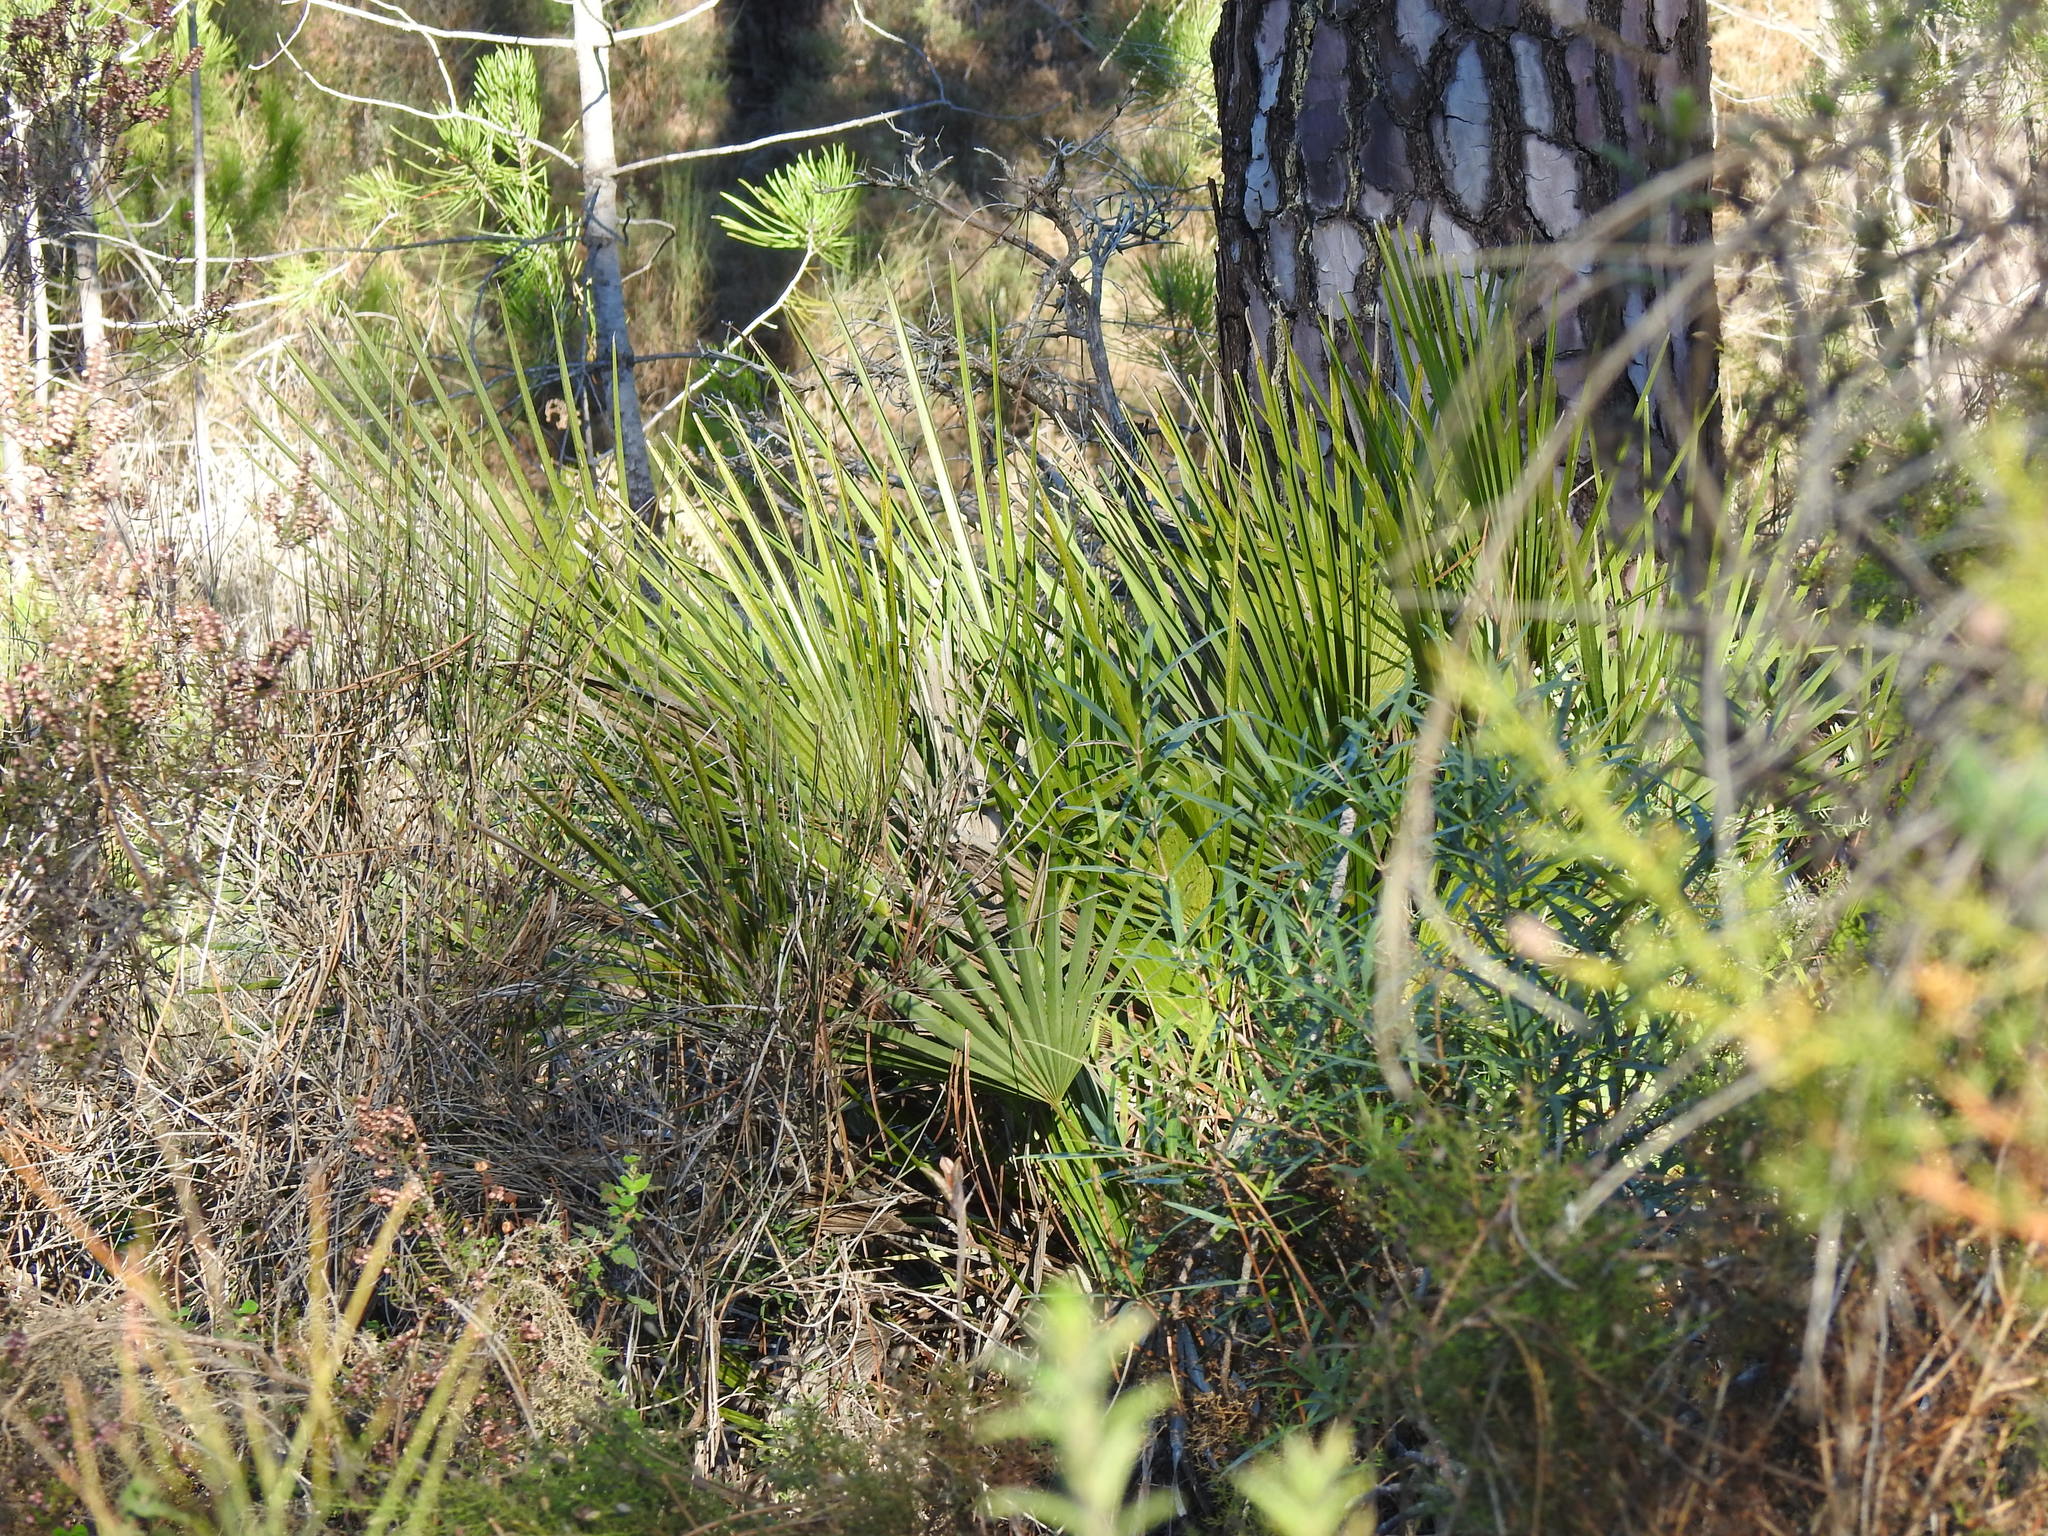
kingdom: Plantae
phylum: Tracheophyta
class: Liliopsida
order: Arecales
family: Arecaceae
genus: Chamaerops
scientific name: Chamaerops humilis
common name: Dwarf fan palm
